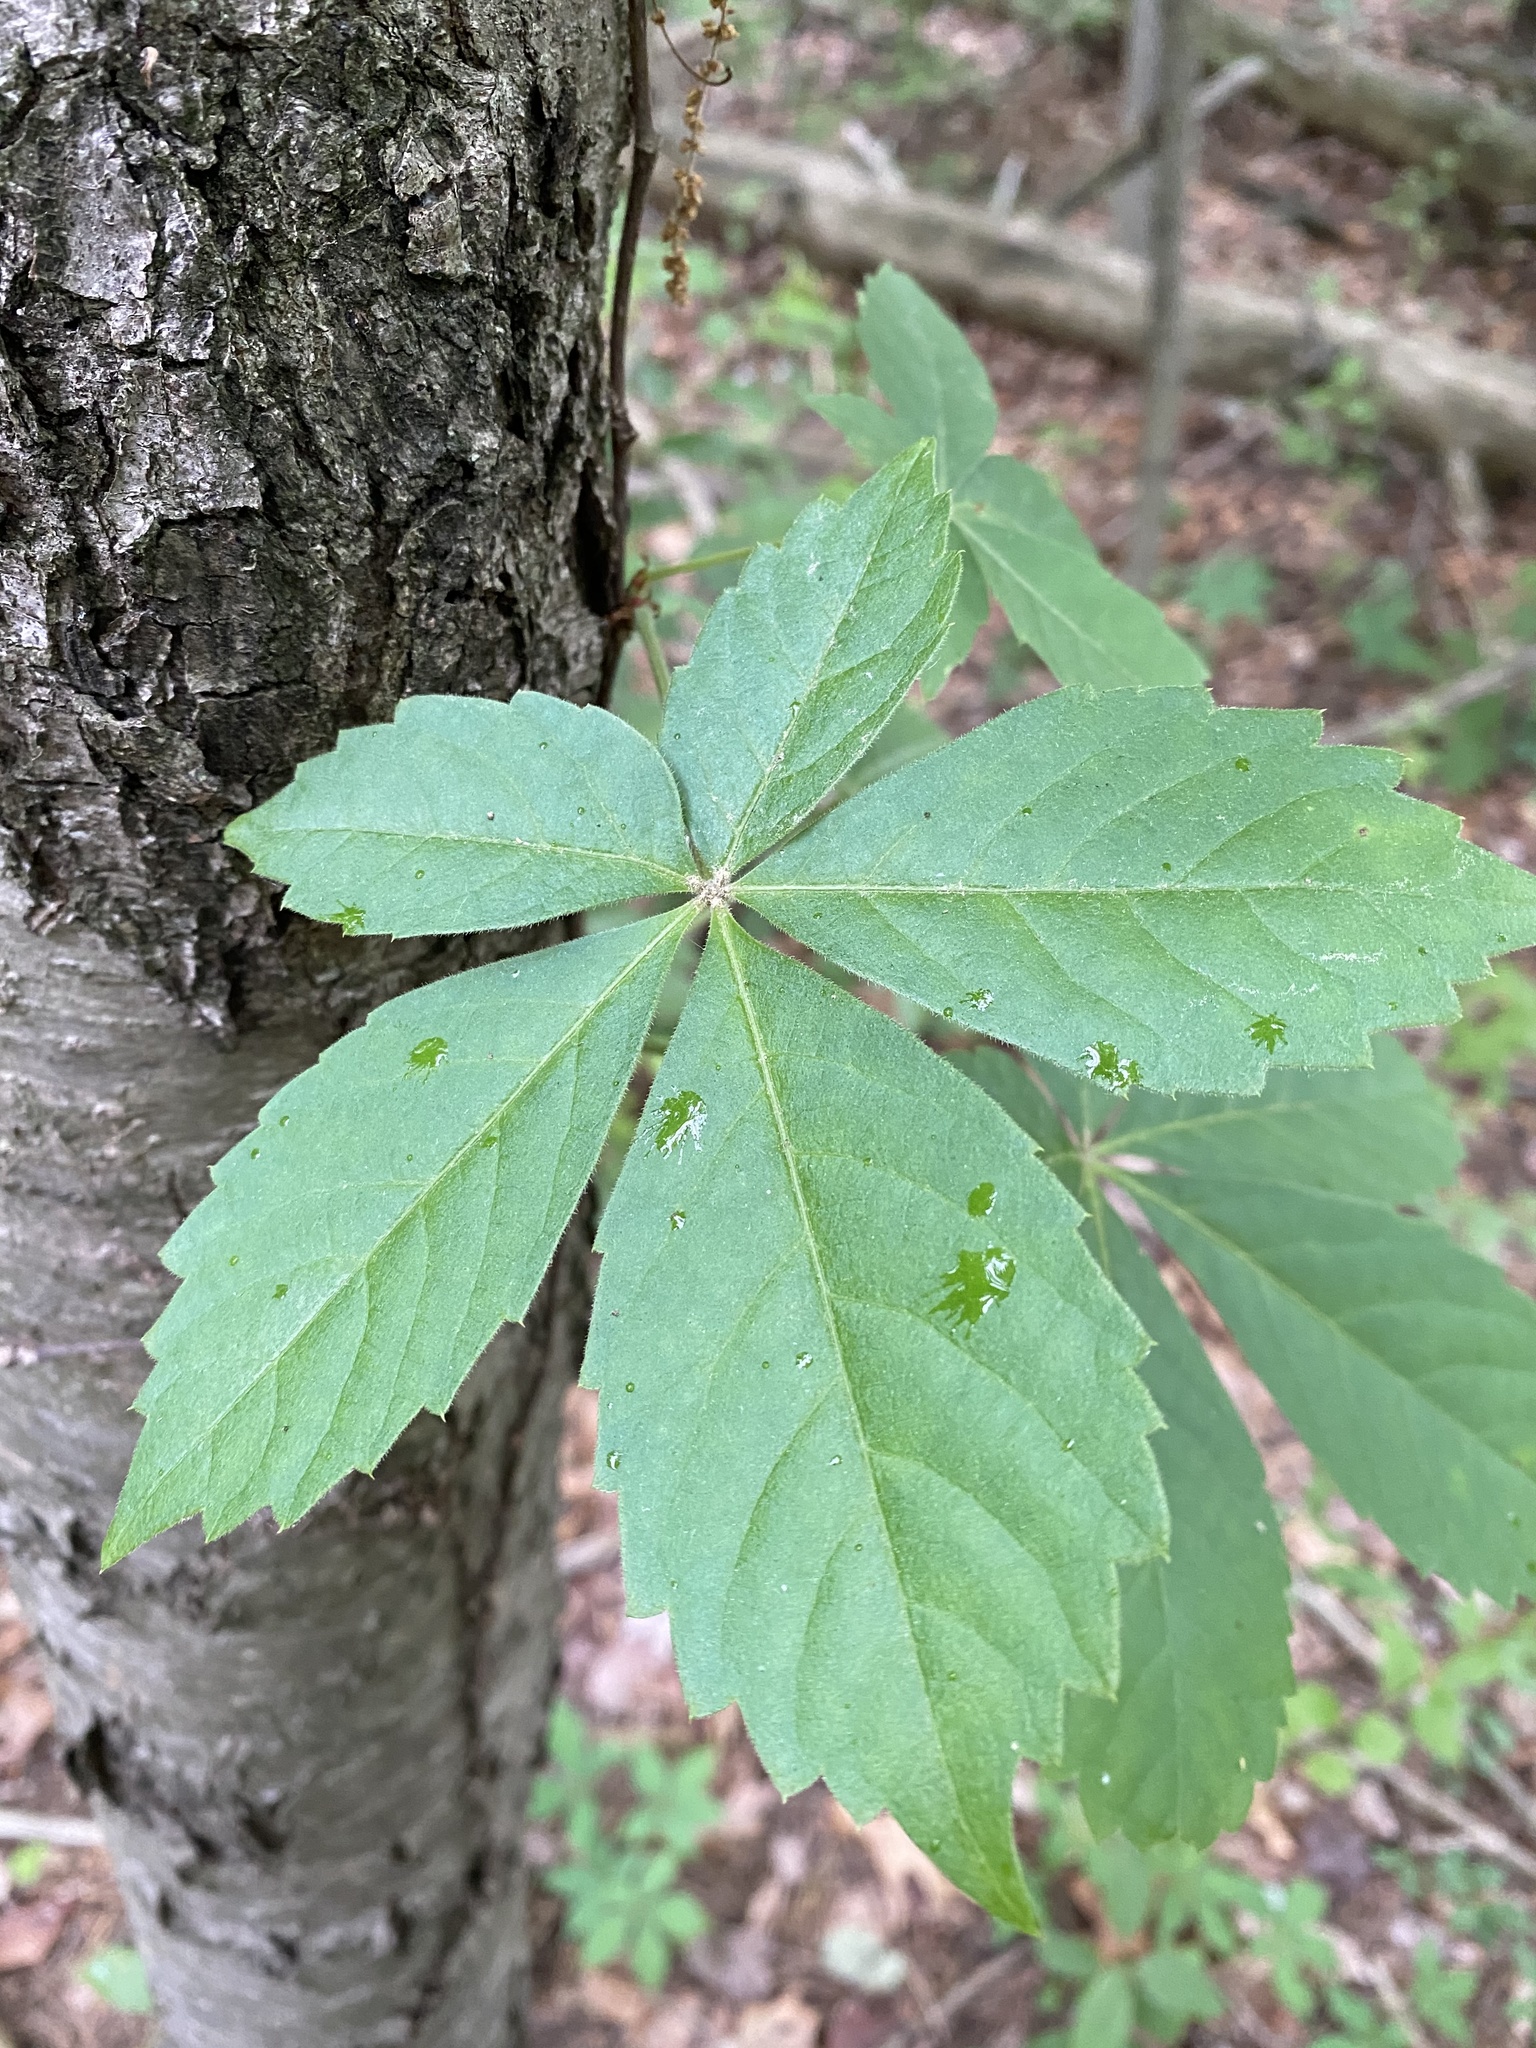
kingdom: Plantae
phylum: Tracheophyta
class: Magnoliopsida
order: Vitales
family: Vitaceae
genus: Parthenocissus
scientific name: Parthenocissus quinquefolia
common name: Virginia-creeper
